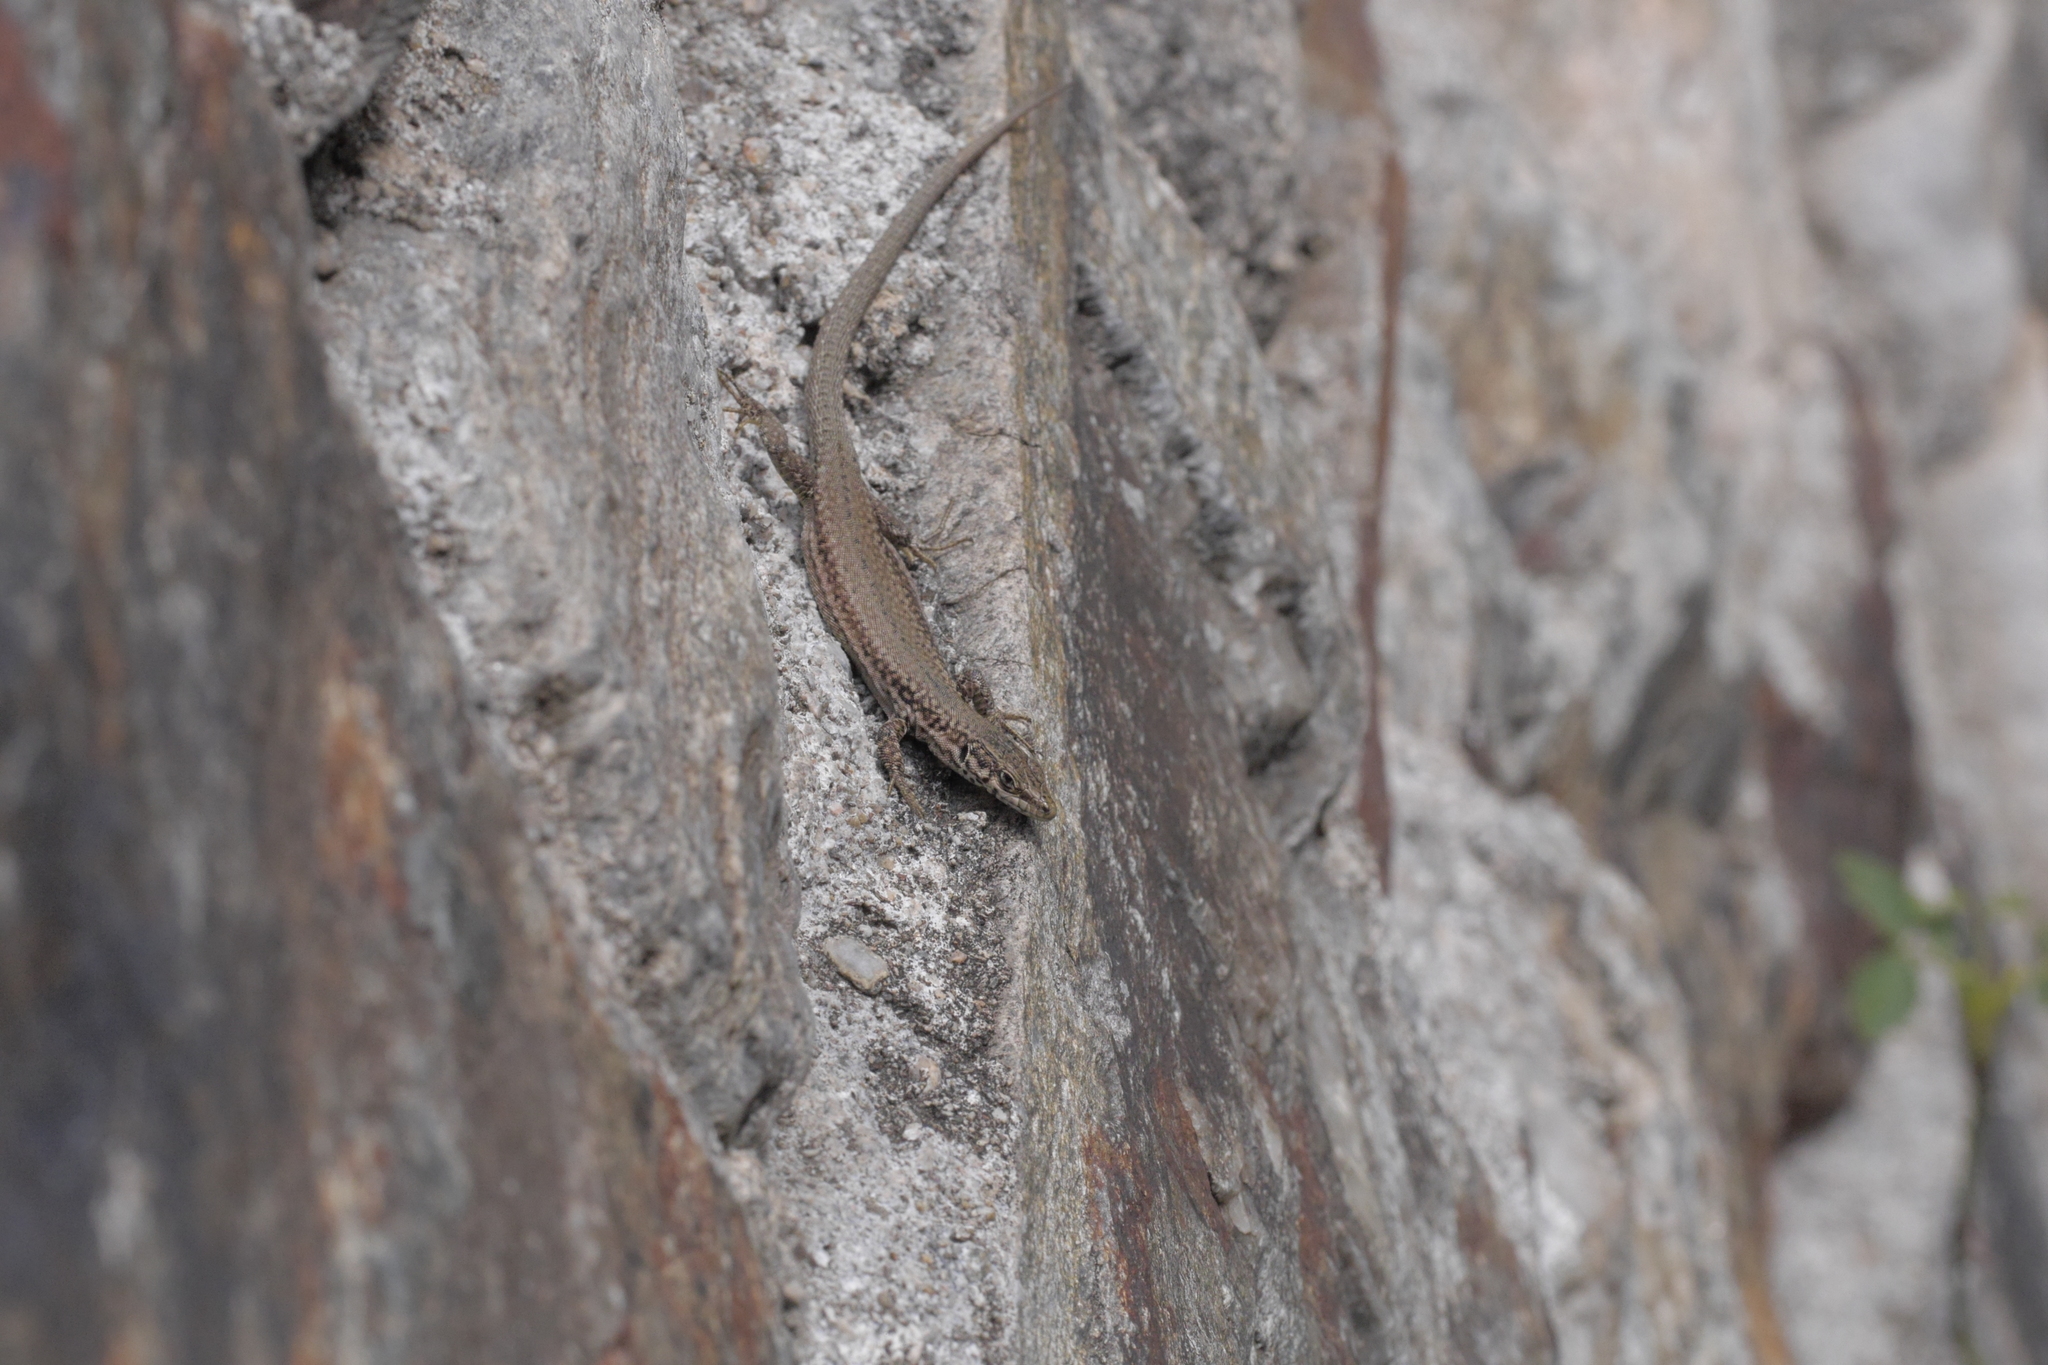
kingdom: Animalia
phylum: Chordata
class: Squamata
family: Lacertidae
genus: Podarcis
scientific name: Podarcis liolepis
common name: Catalonian wall lizard
